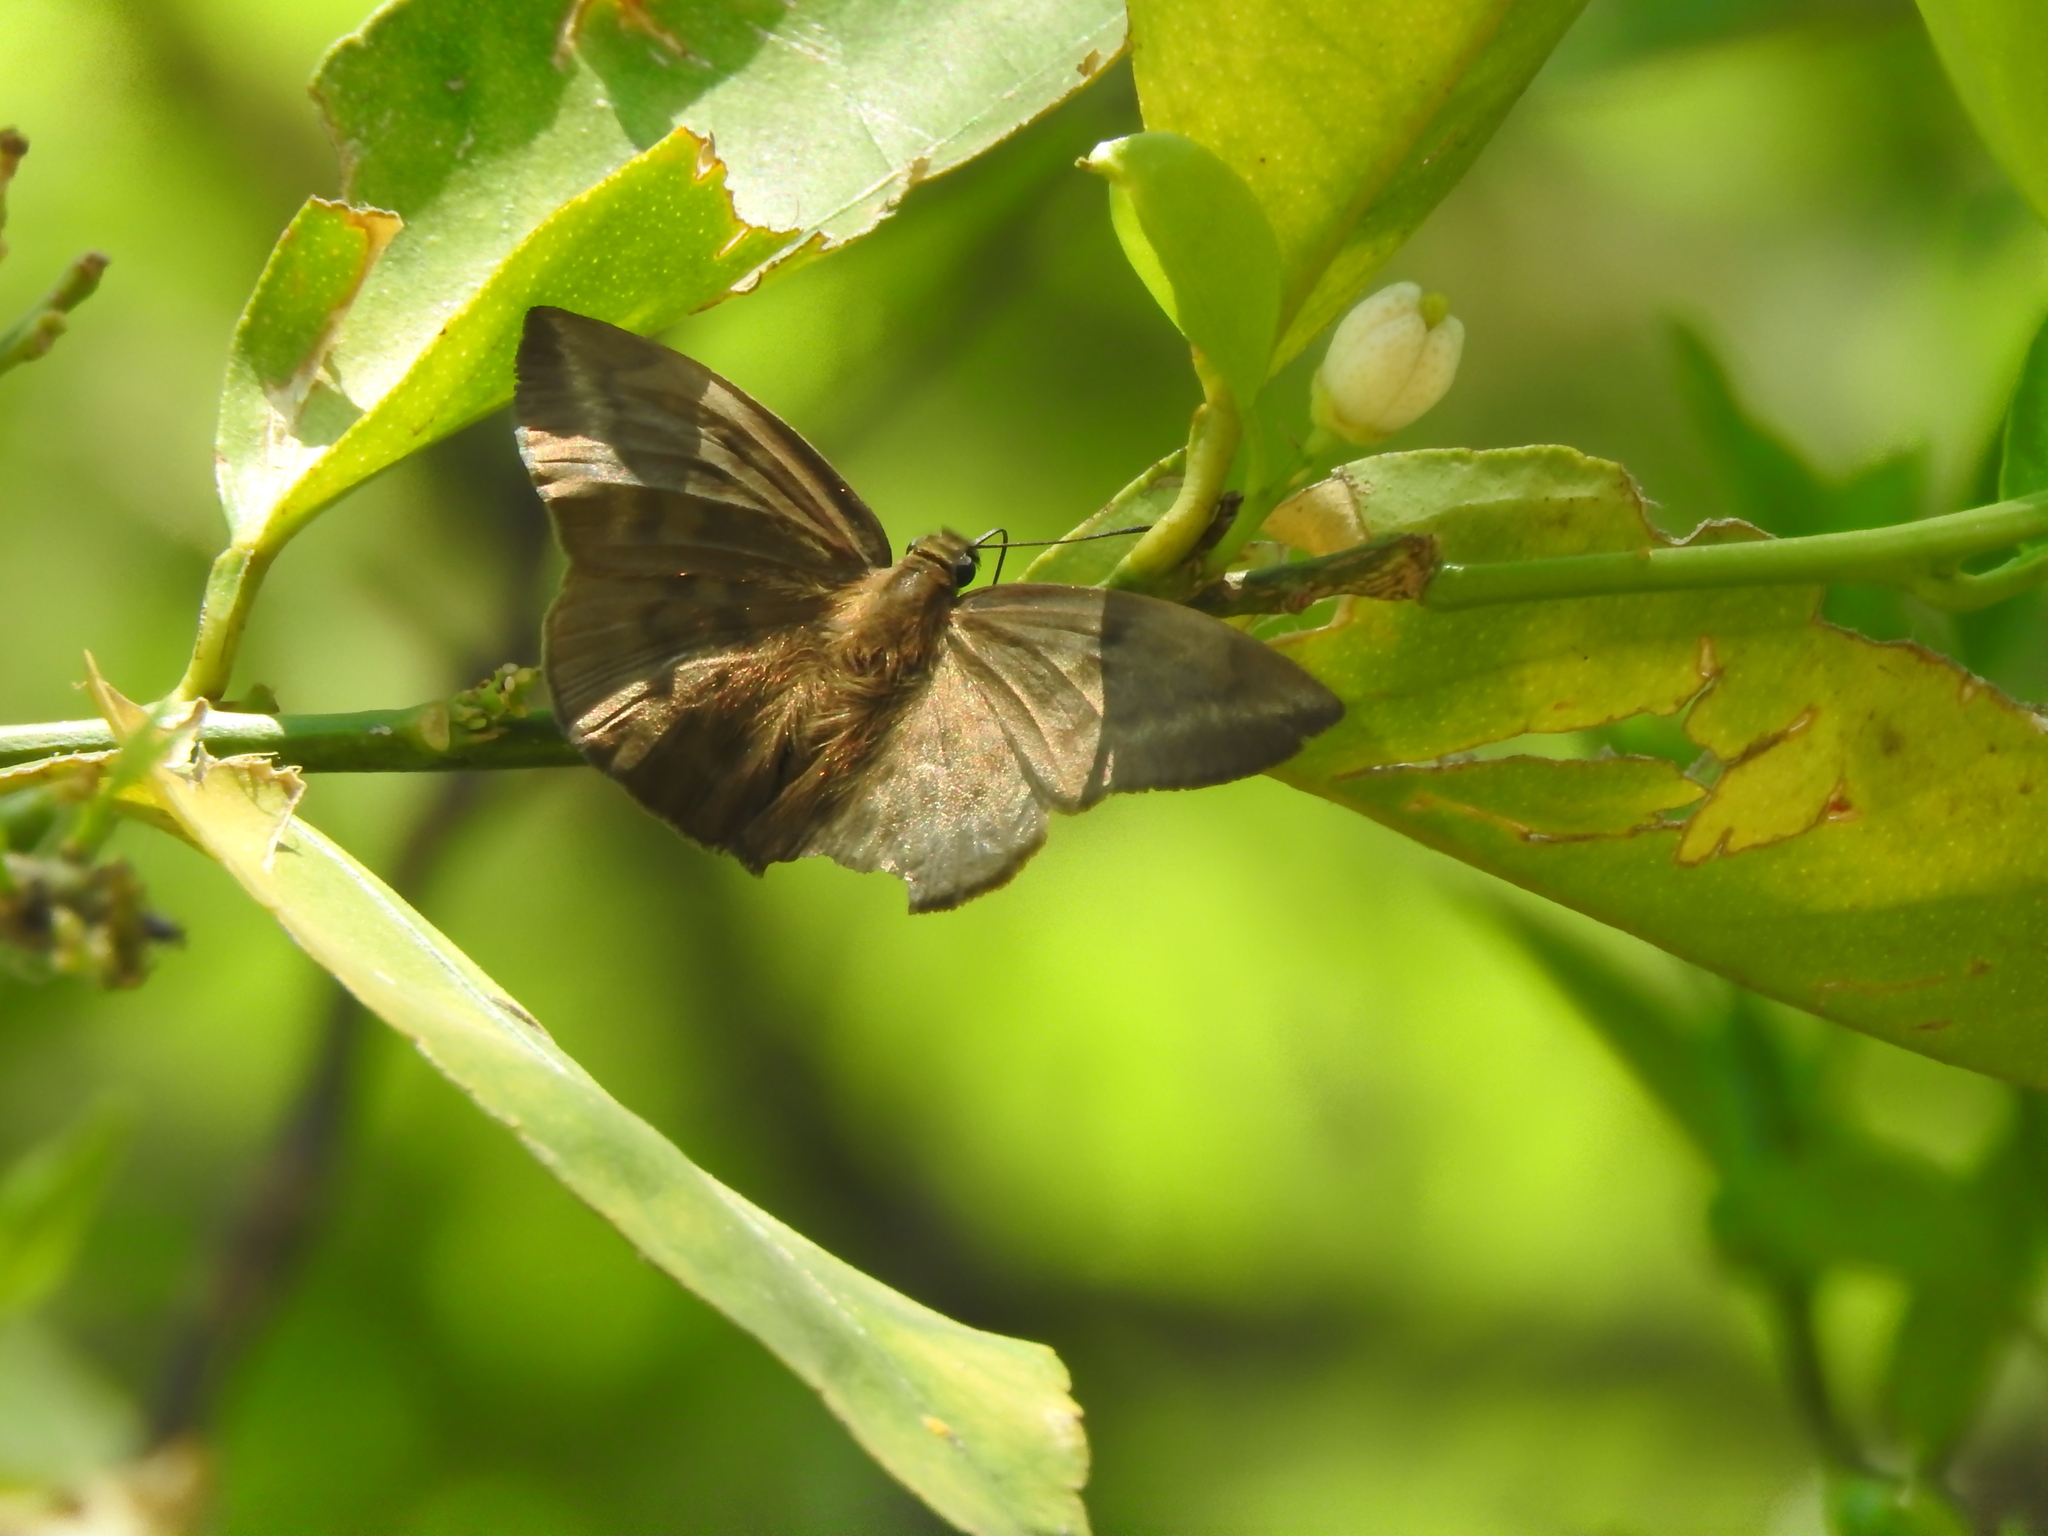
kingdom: Animalia
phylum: Arthropoda
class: Insecta
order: Lepidoptera
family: Hesperiidae
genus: Achlyodes
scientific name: Achlyodes pallida
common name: Pale sicklewing
